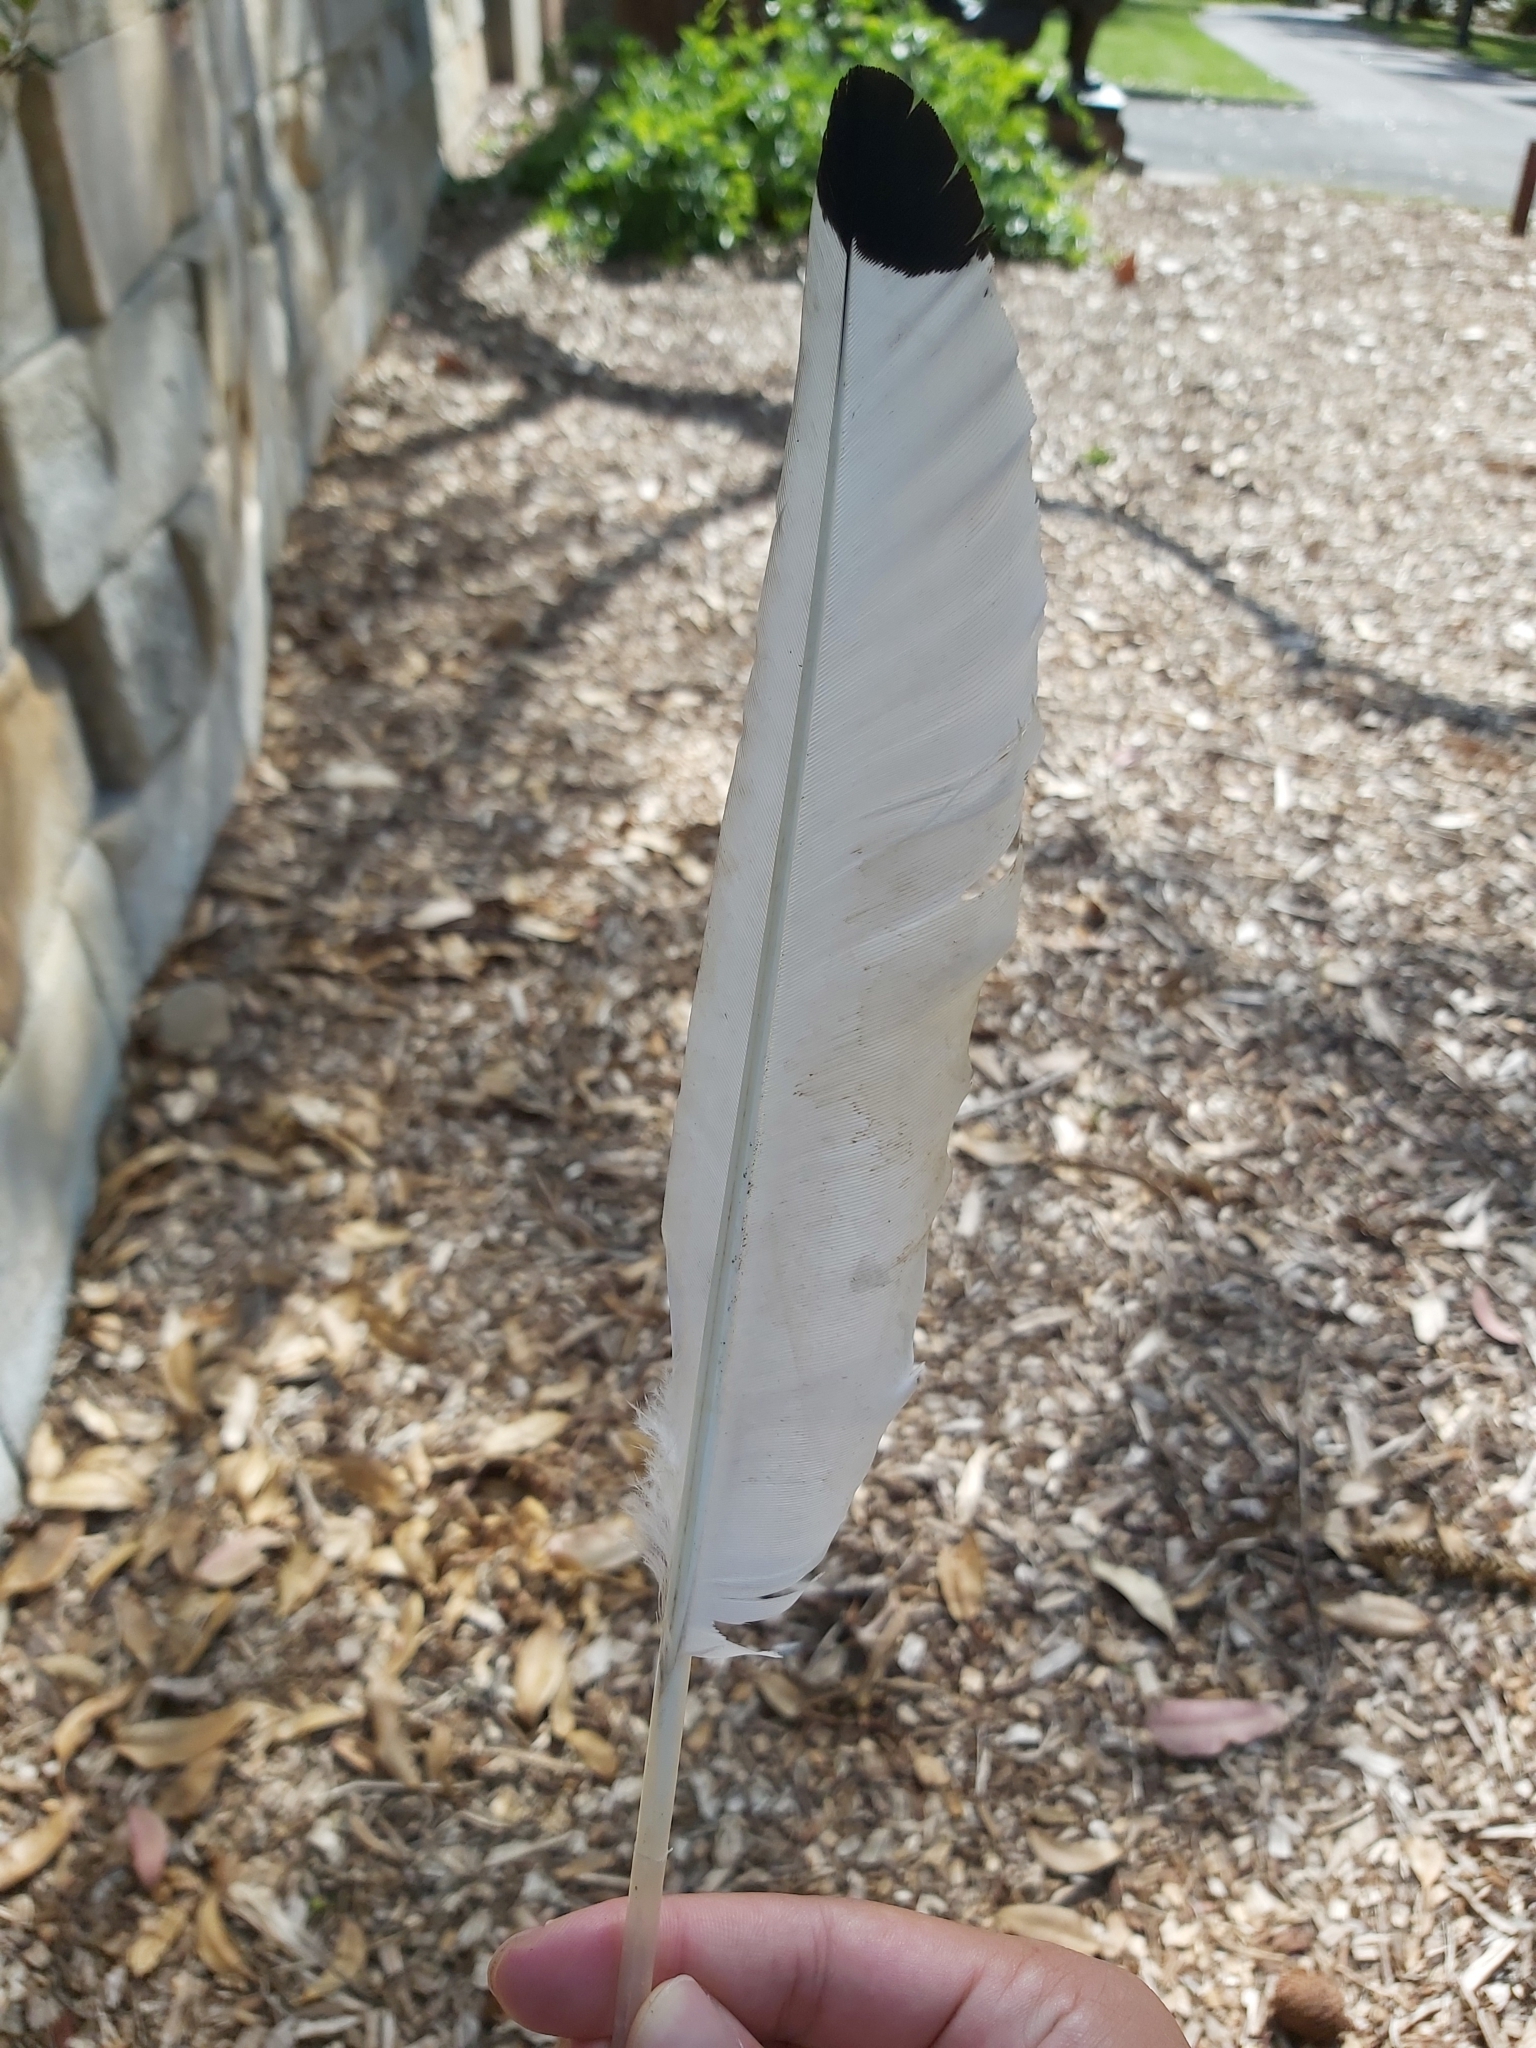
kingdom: Animalia
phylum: Chordata
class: Aves
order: Pelecaniformes
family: Threskiornithidae
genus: Threskiornis
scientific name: Threskiornis molucca
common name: Australian white ibis
